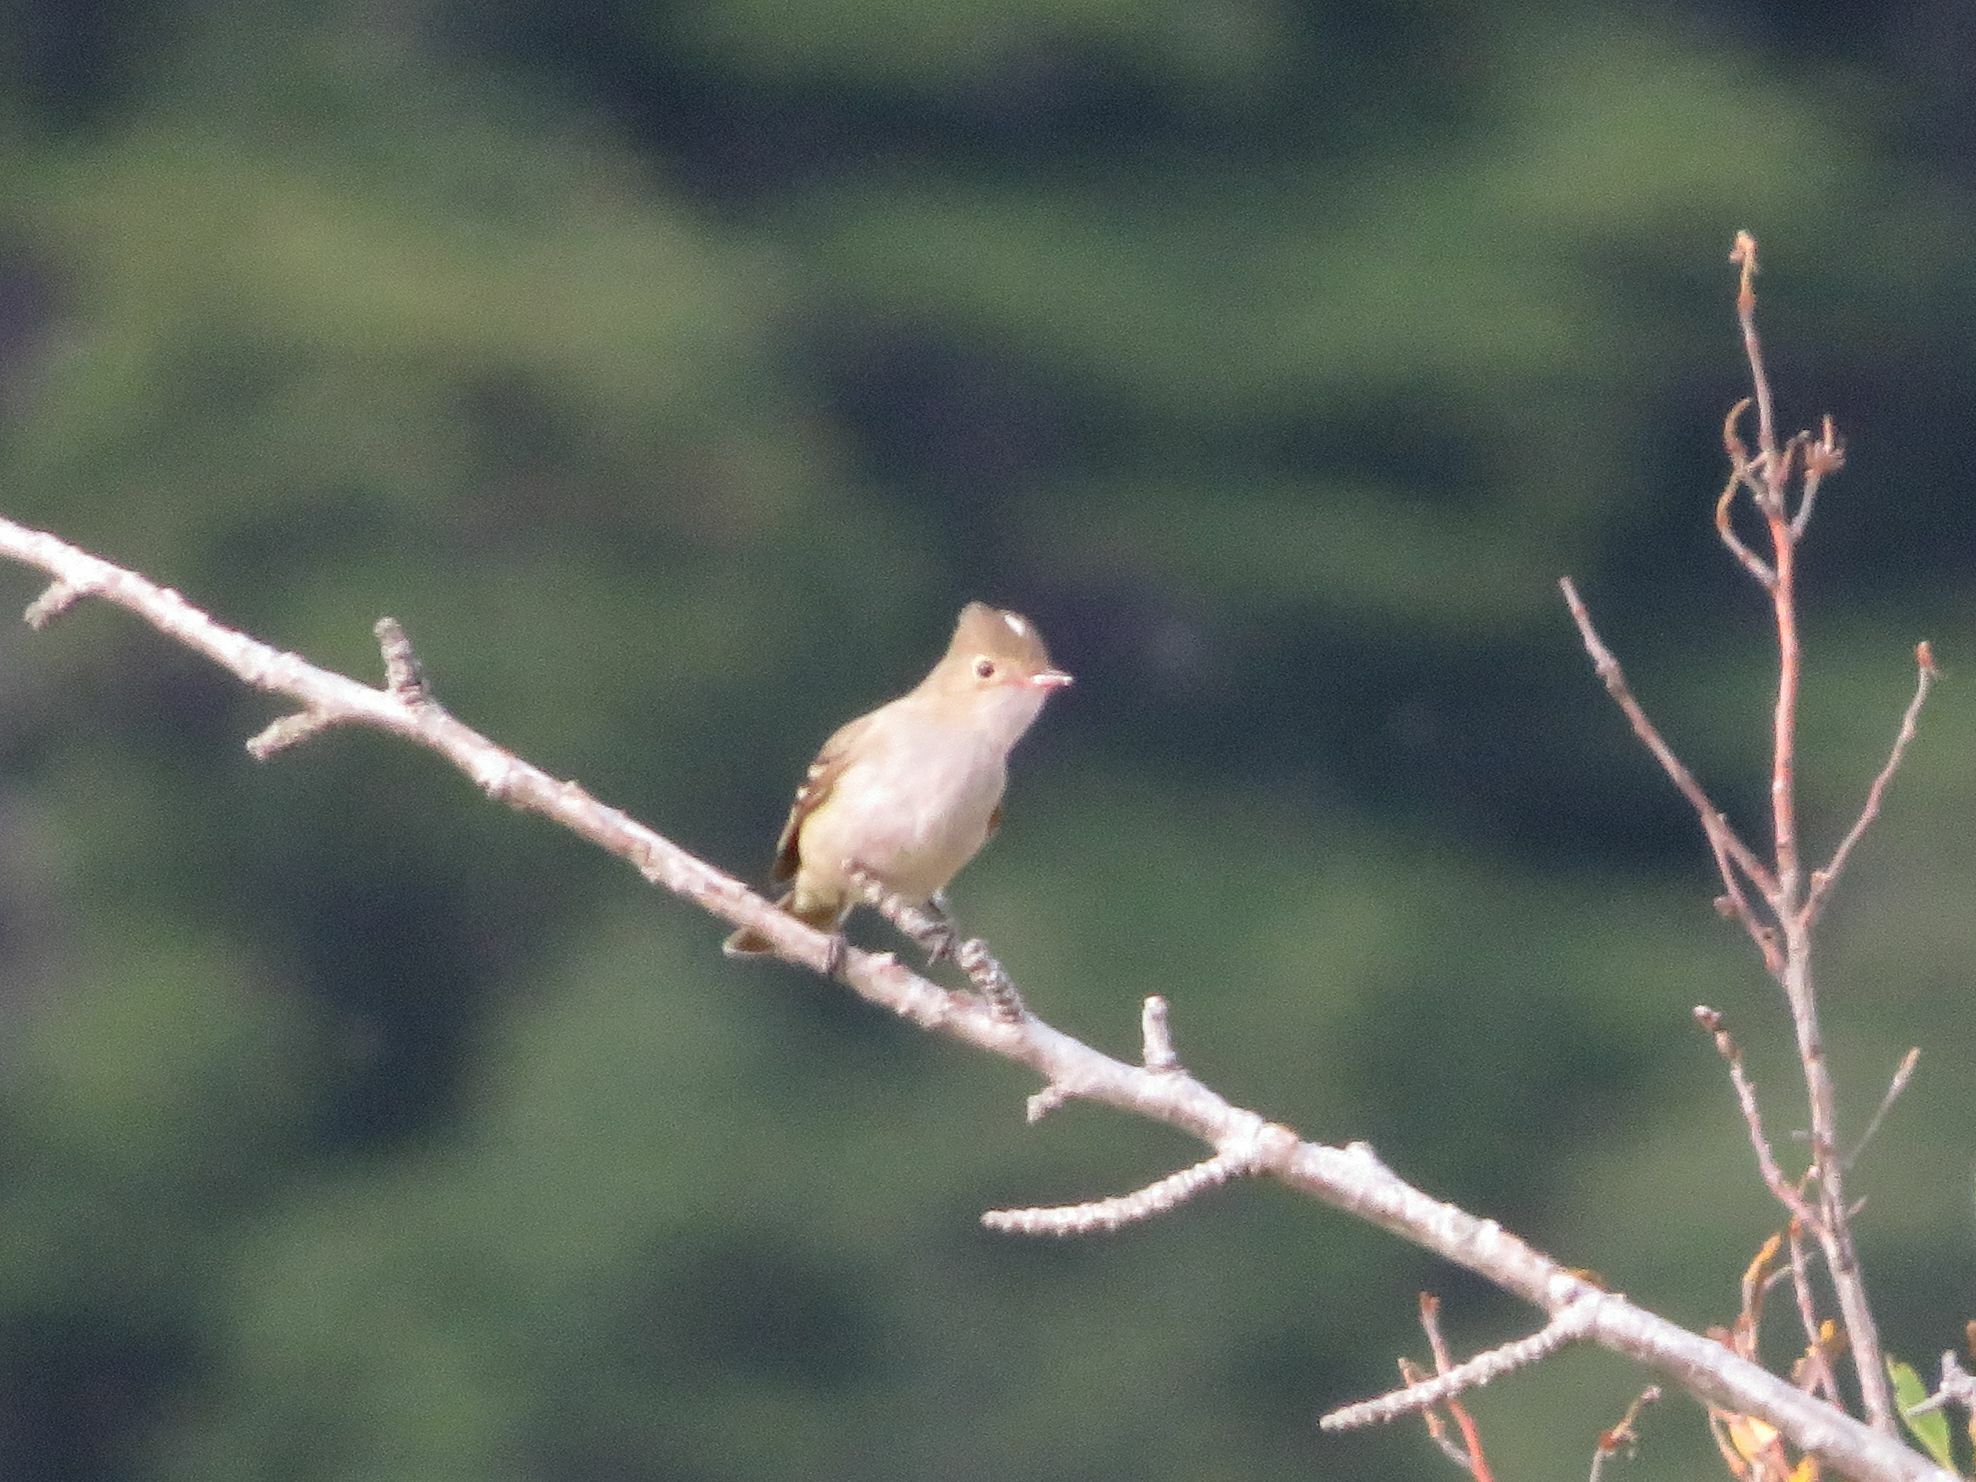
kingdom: Animalia
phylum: Chordata
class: Aves
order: Passeriformes
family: Tyrannidae
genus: Elaenia
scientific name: Elaenia albiceps
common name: White-crested elaenia
